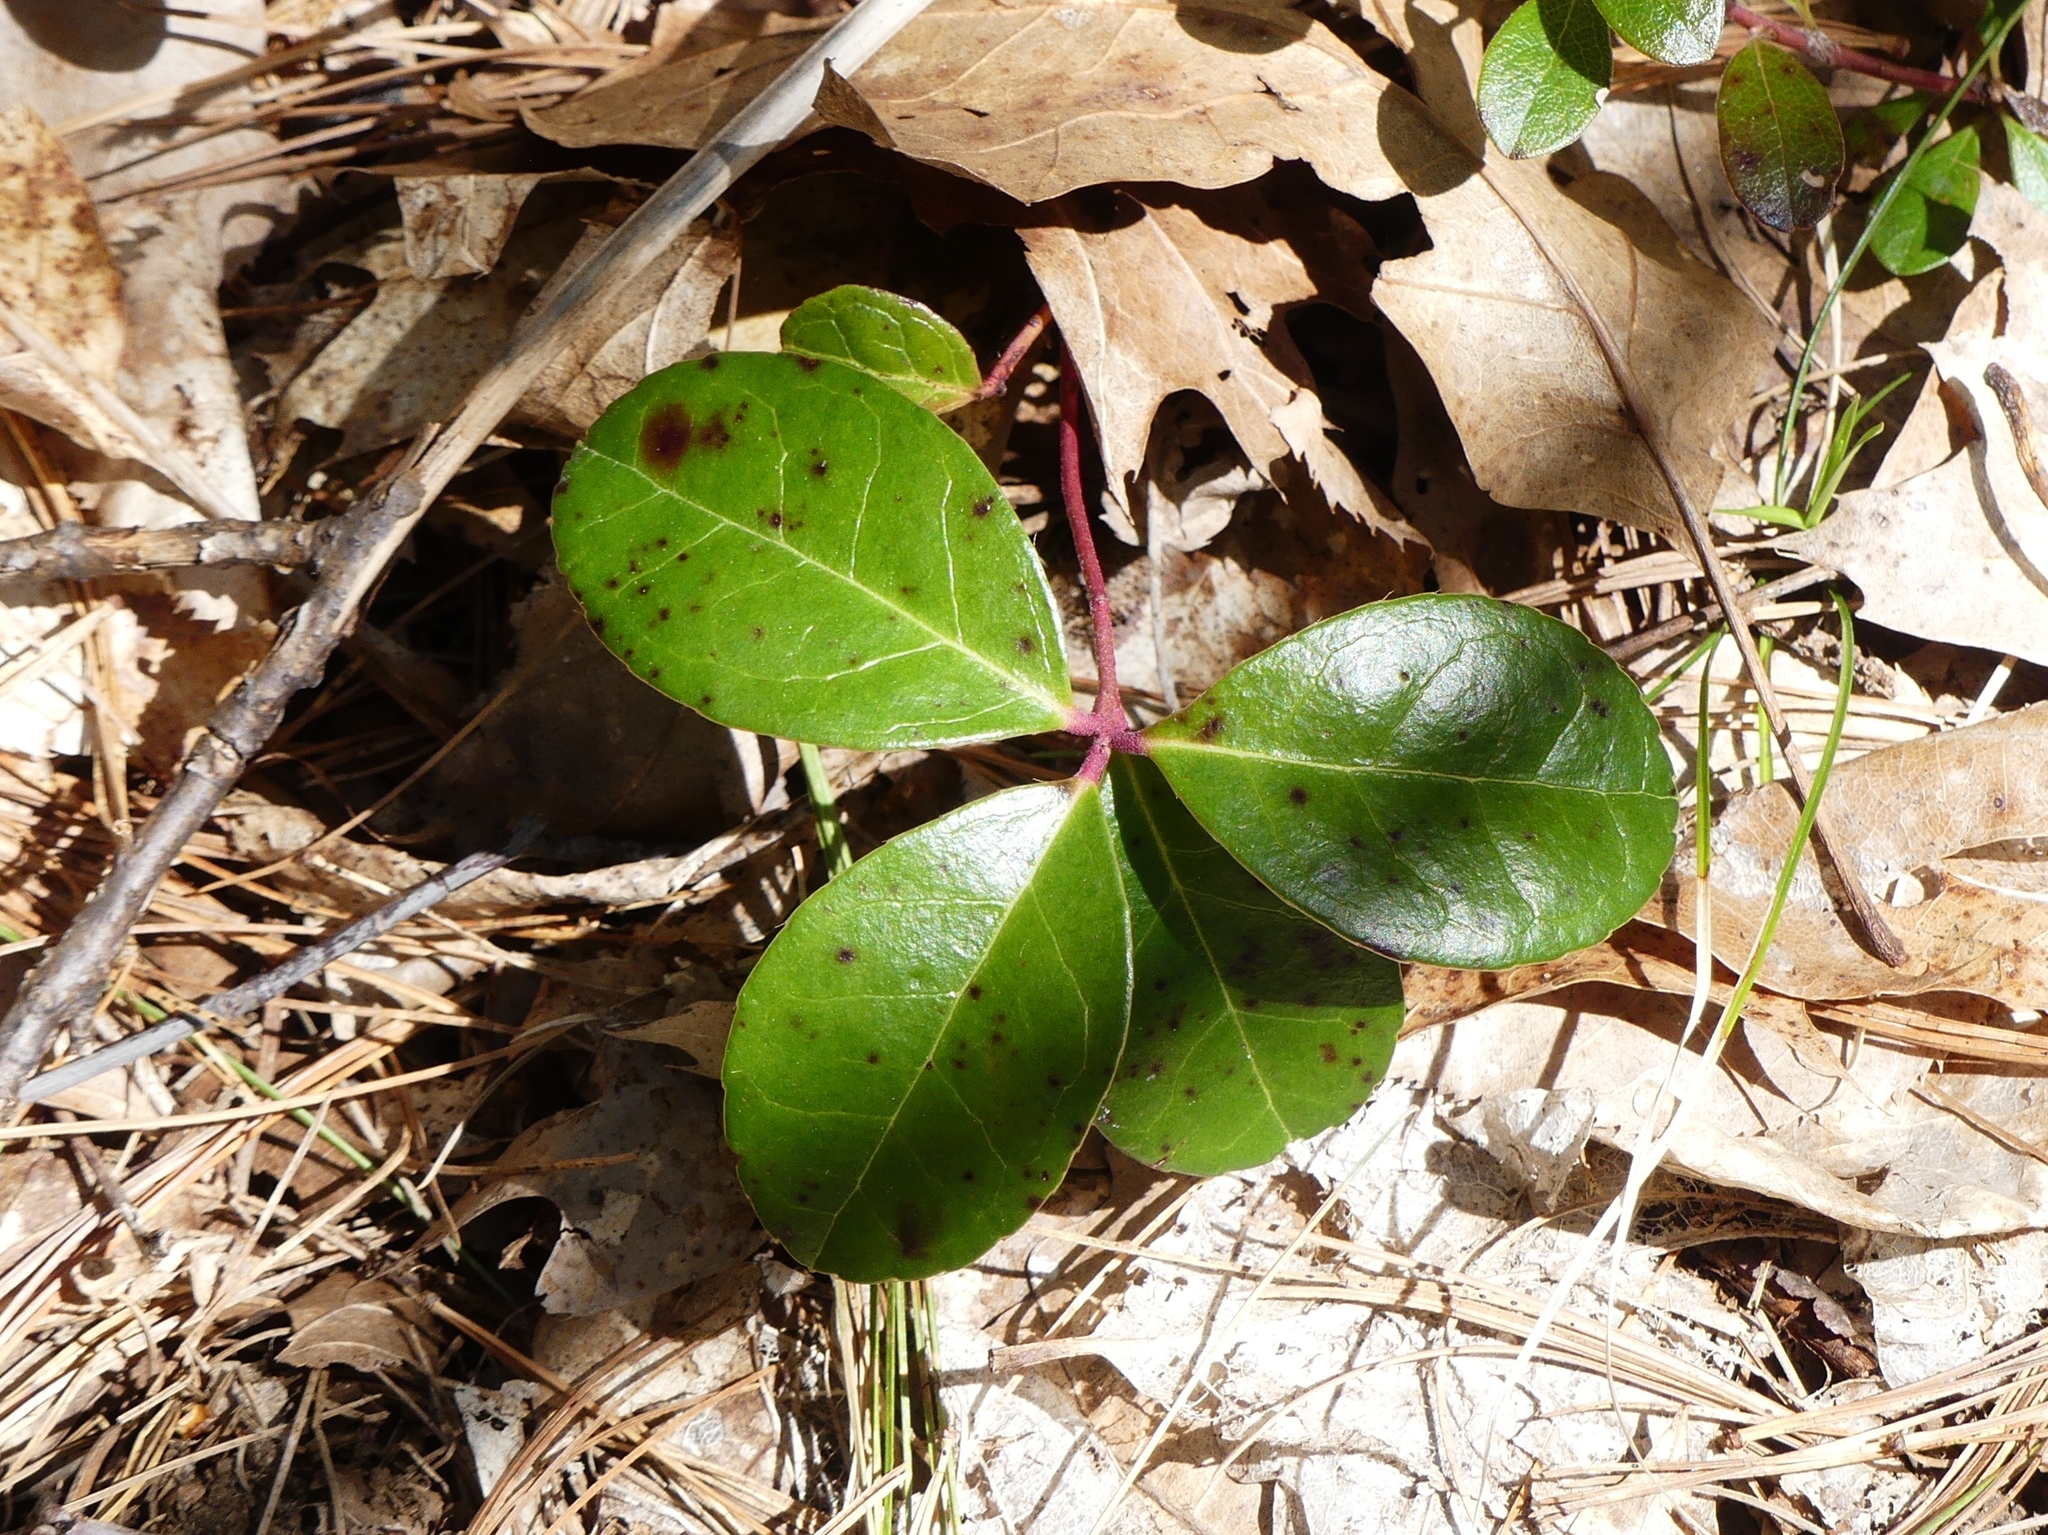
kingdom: Plantae
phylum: Tracheophyta
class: Magnoliopsida
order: Ericales
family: Ericaceae
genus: Gaultheria
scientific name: Gaultheria procumbens
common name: Checkerberry
